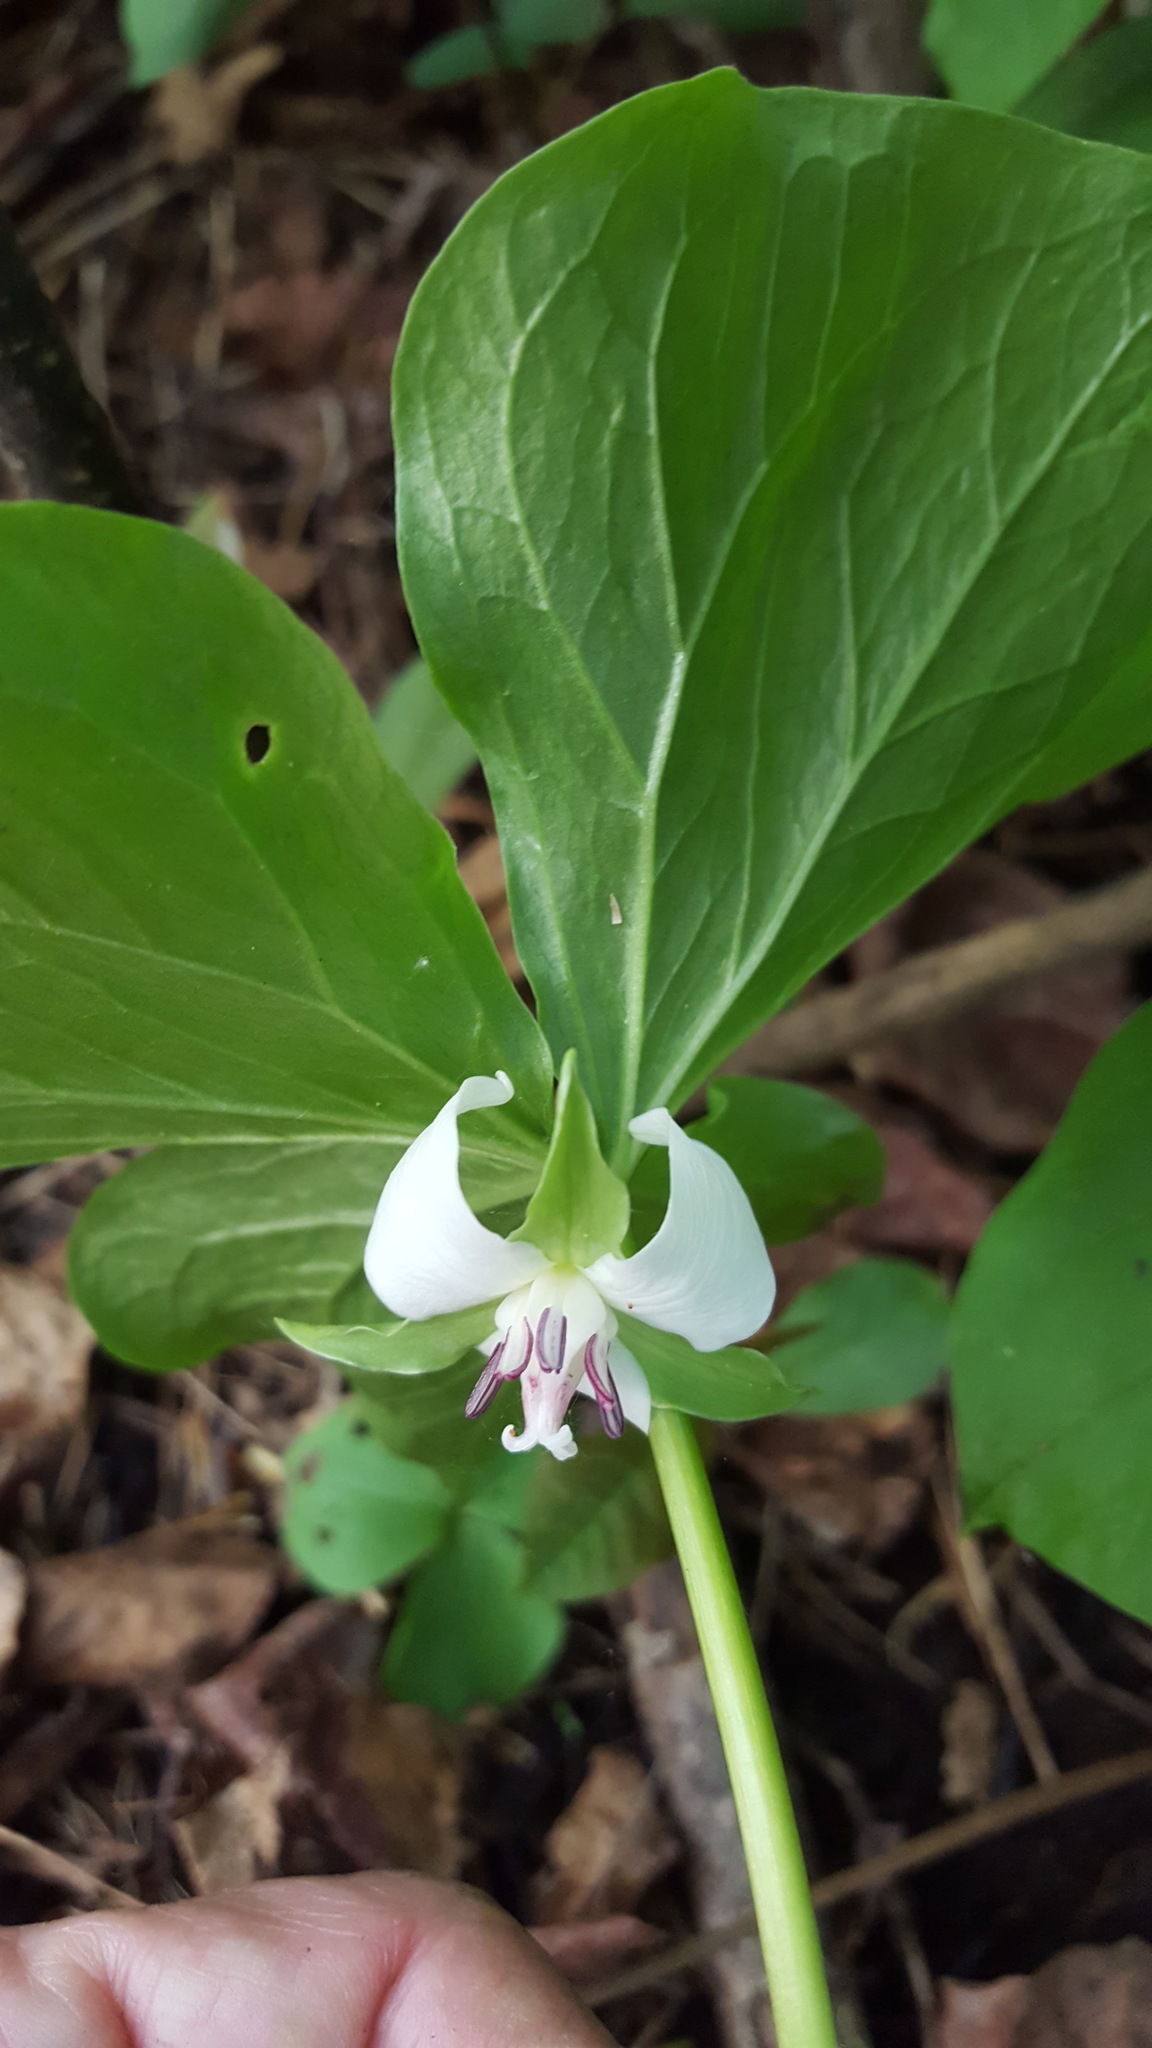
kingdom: Plantae
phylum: Tracheophyta
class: Liliopsida
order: Liliales
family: Melanthiaceae
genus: Trillium
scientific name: Trillium cernuum
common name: Nodding trillium
